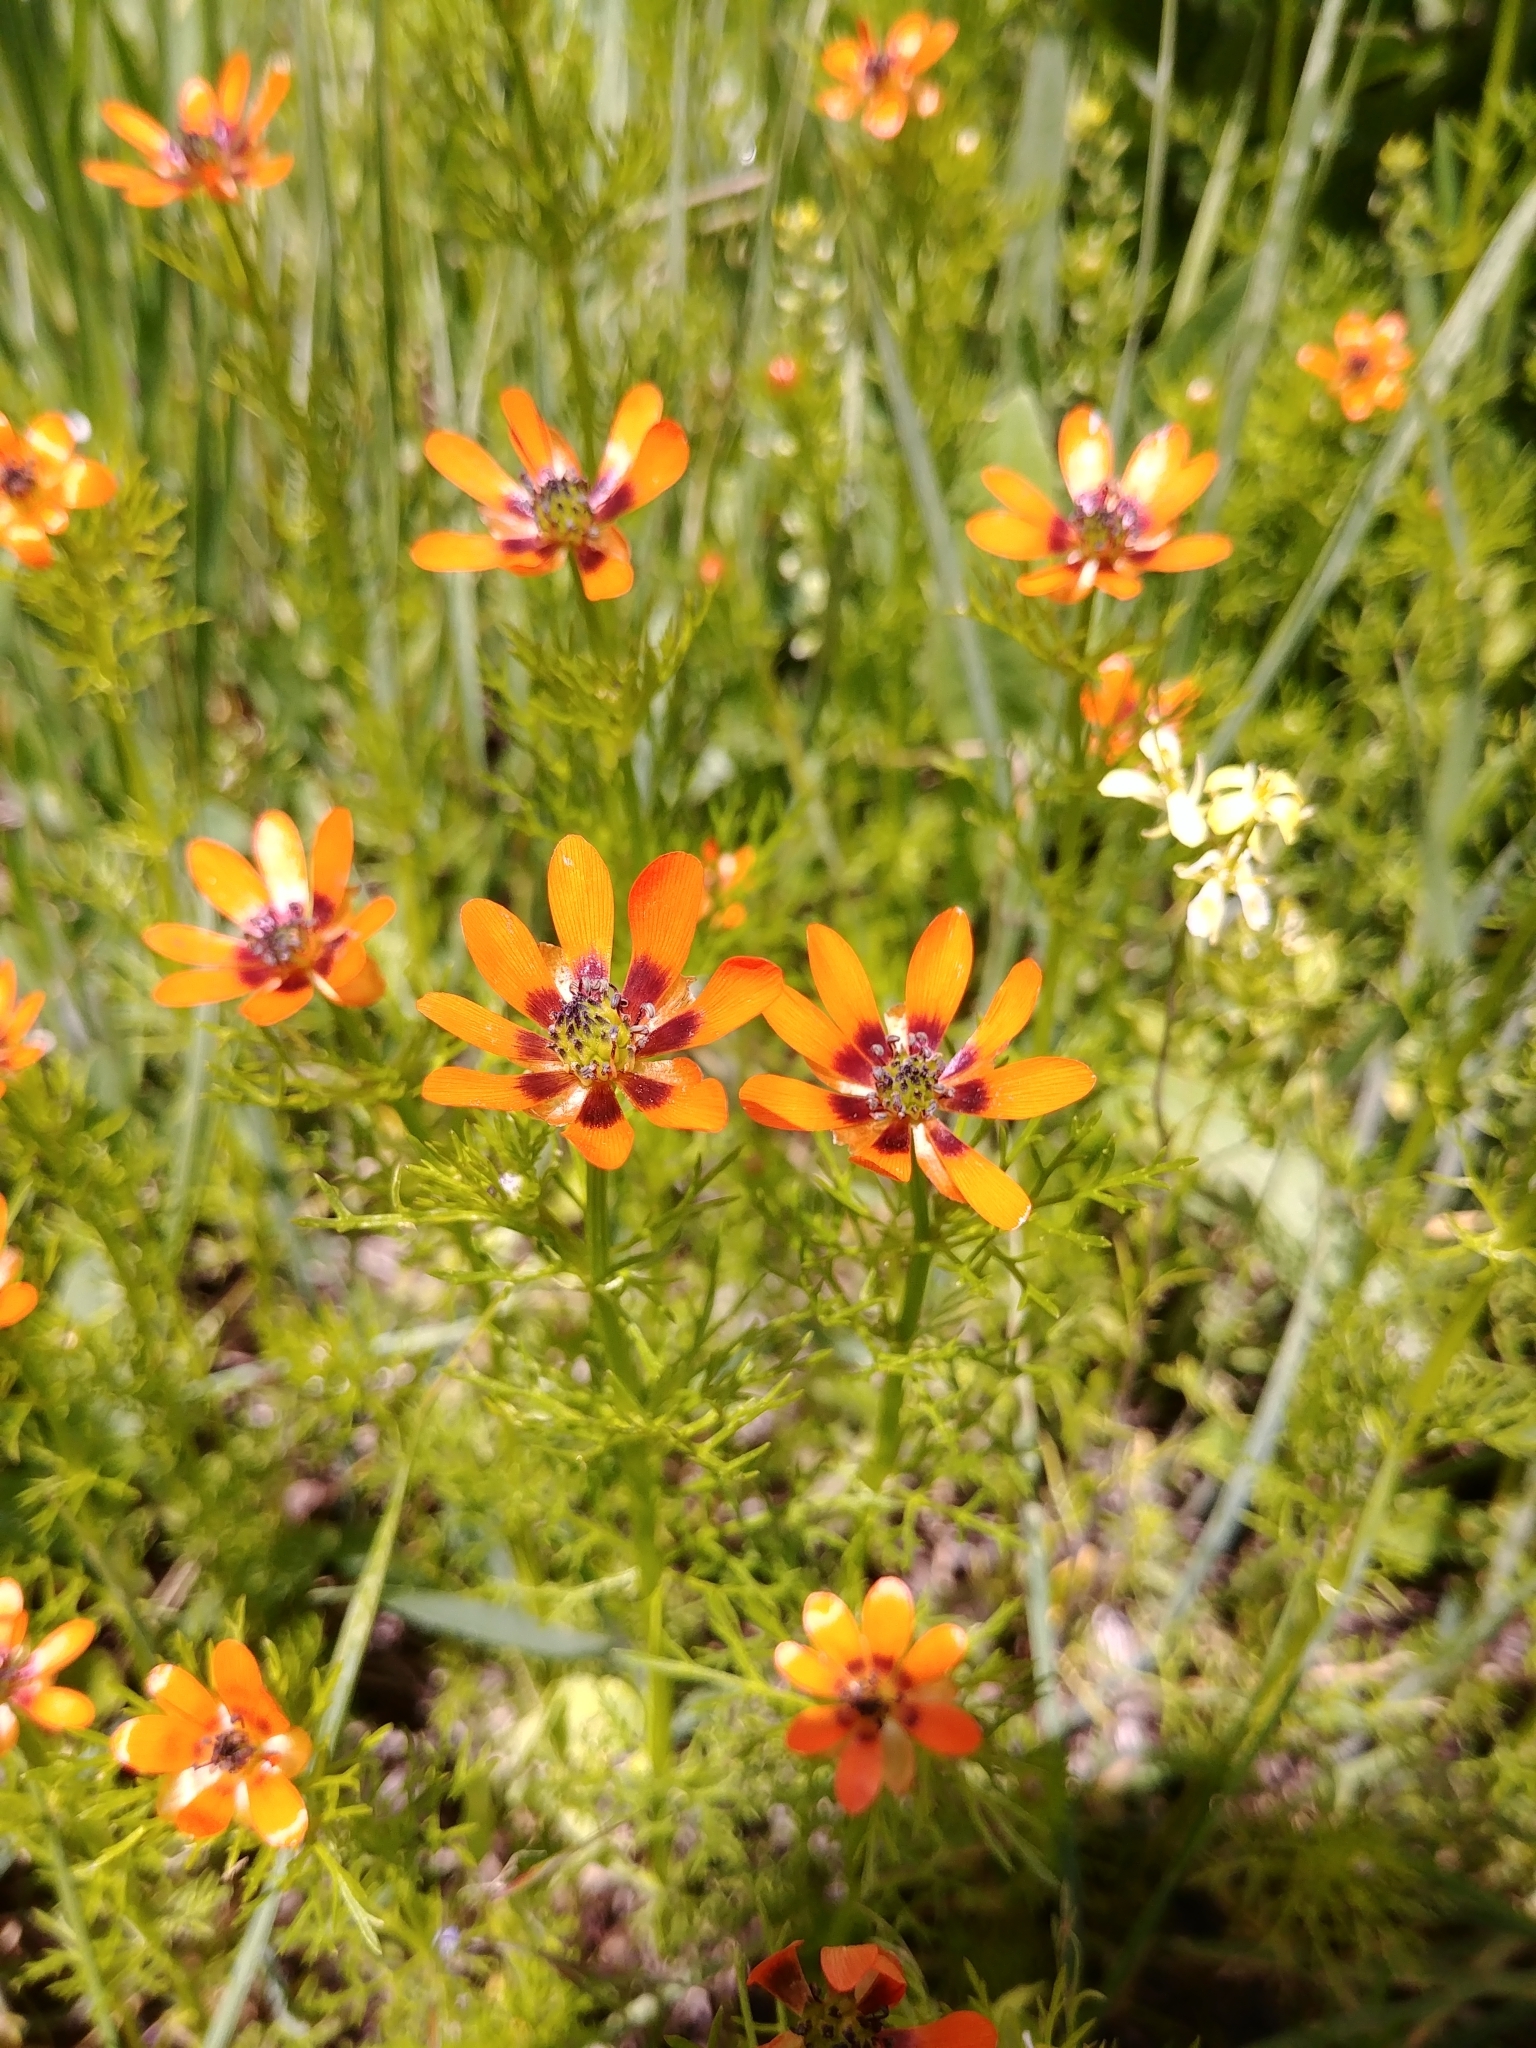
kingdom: Plantae
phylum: Tracheophyta
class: Magnoliopsida
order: Ranunculales
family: Ranunculaceae
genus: Adonis
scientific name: Adonis aestivalis
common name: Summer pheasant's-eye
